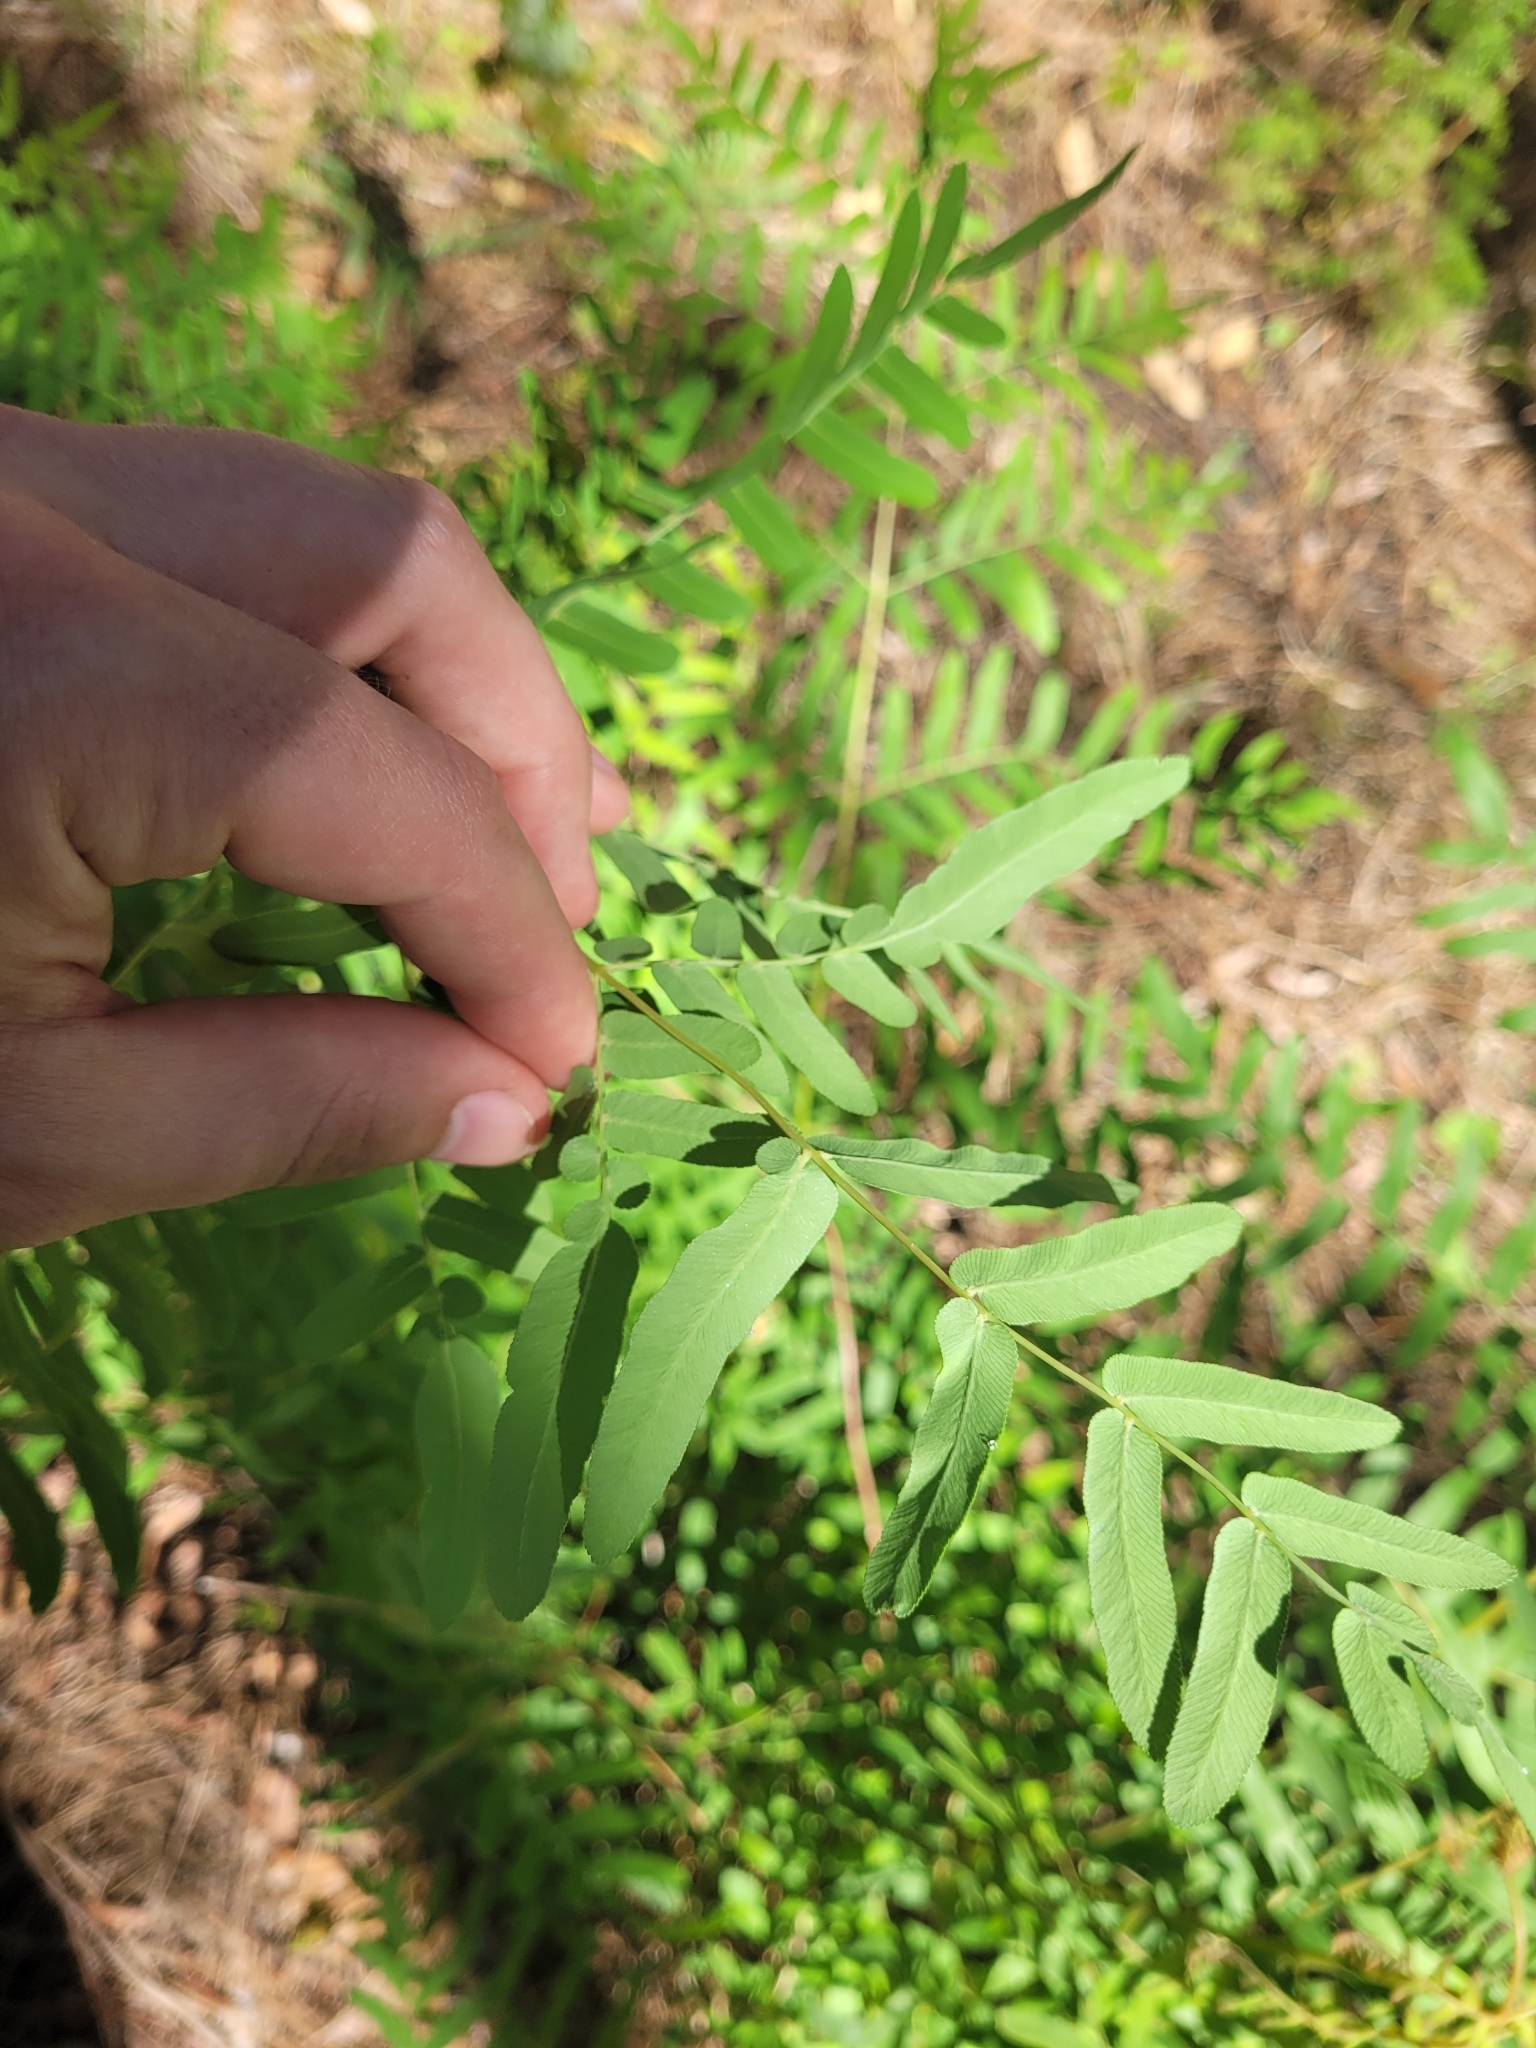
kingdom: Plantae
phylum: Tracheophyta
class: Polypodiopsida
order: Osmundales
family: Osmundaceae
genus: Osmunda
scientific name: Osmunda spectabilis
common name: American royal fern
